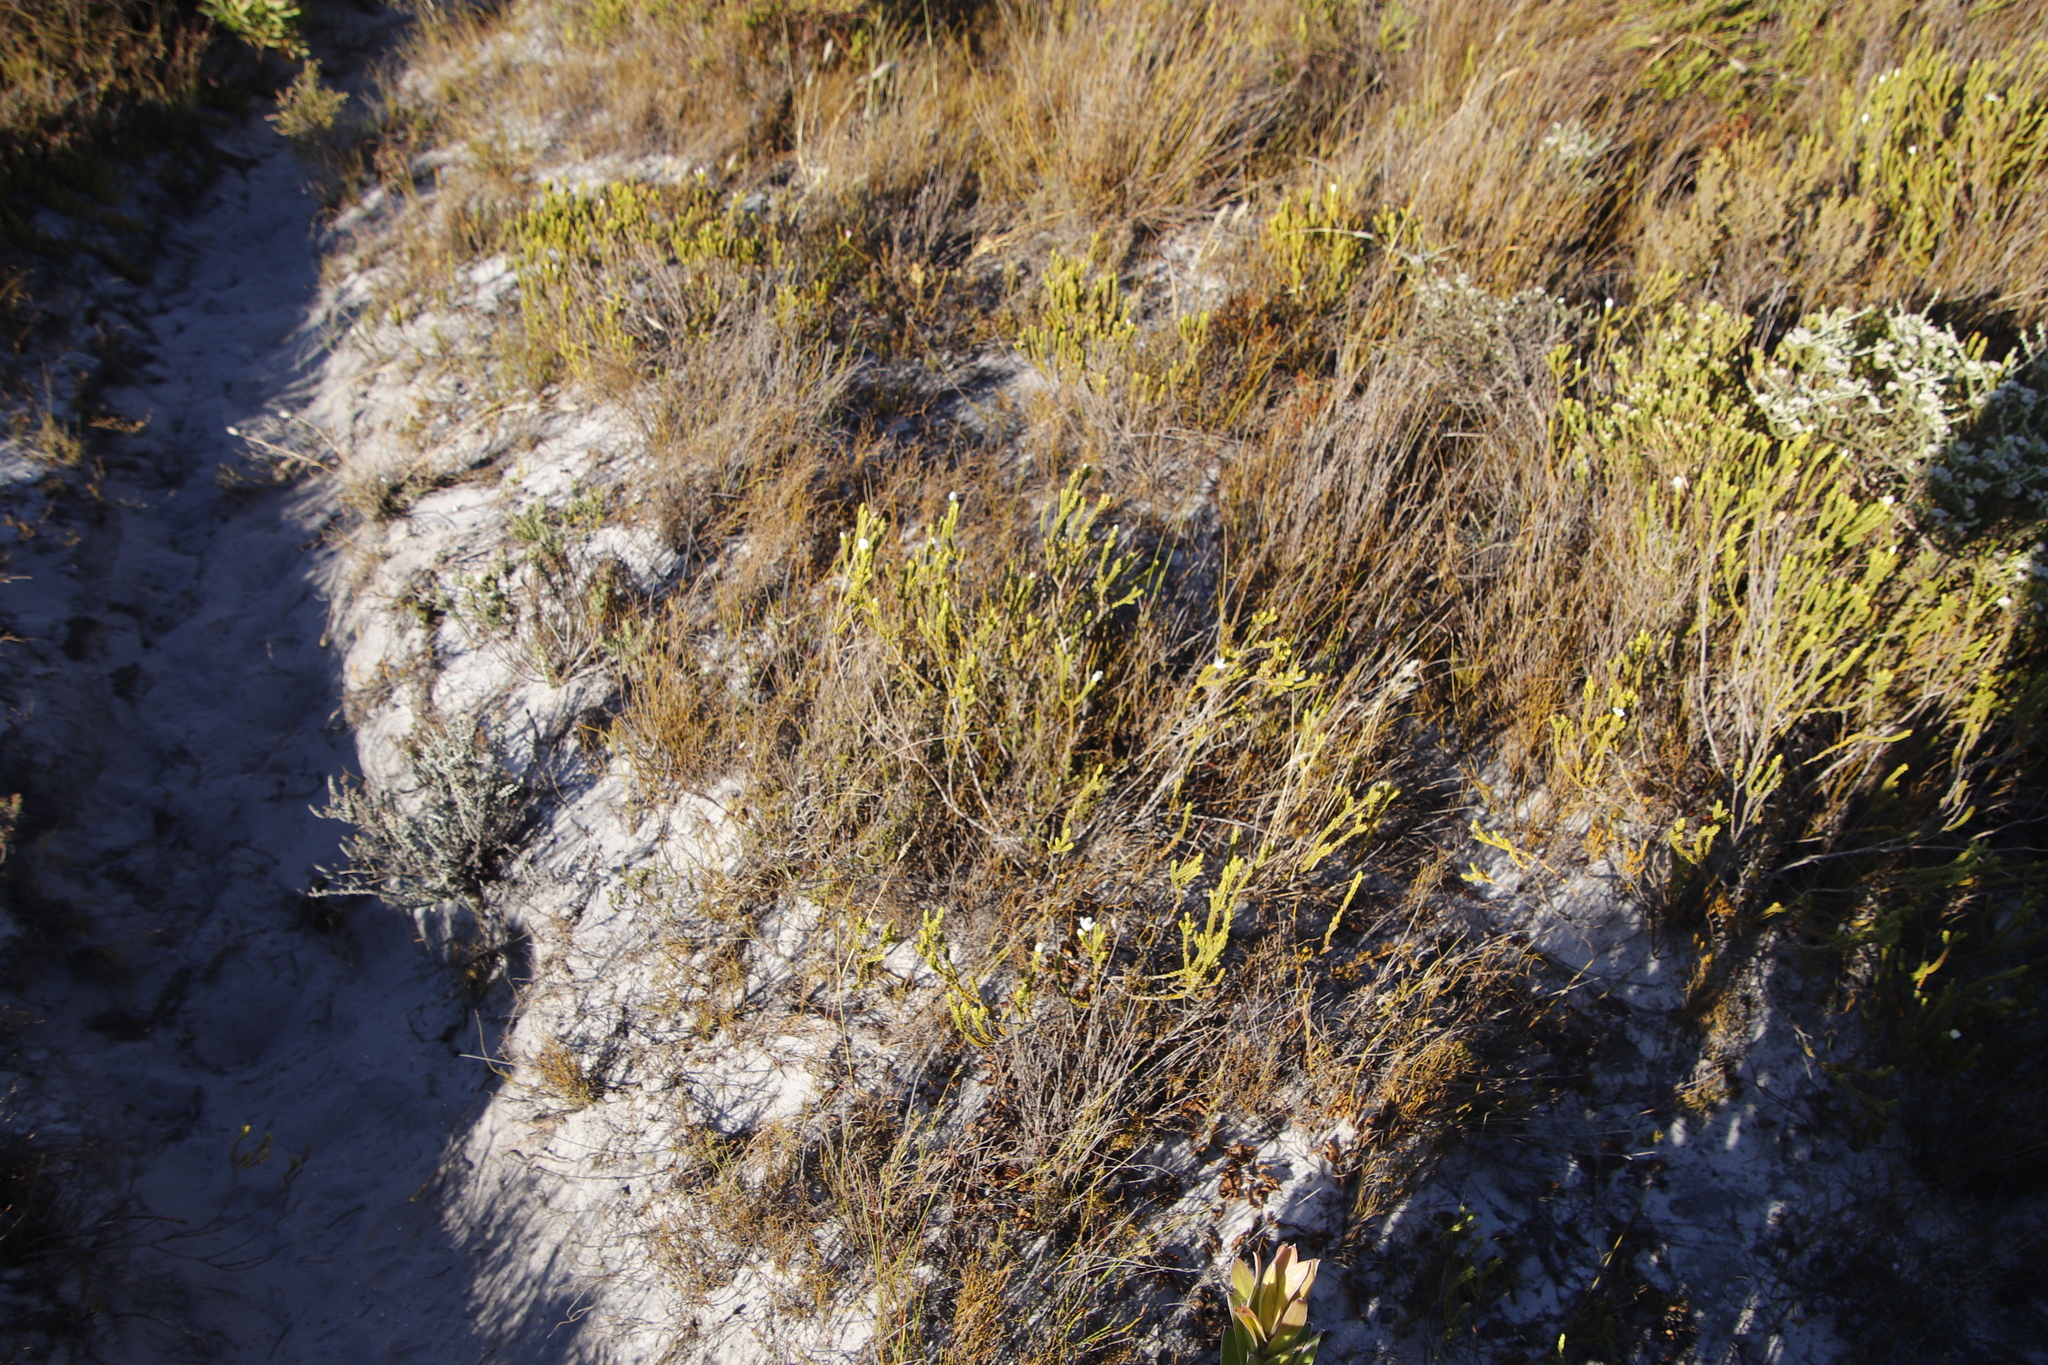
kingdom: Plantae
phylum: Tracheophyta
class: Magnoliopsida
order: Malvales
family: Thymelaeaceae
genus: Lachnaea
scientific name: Lachnaea grandiflora
